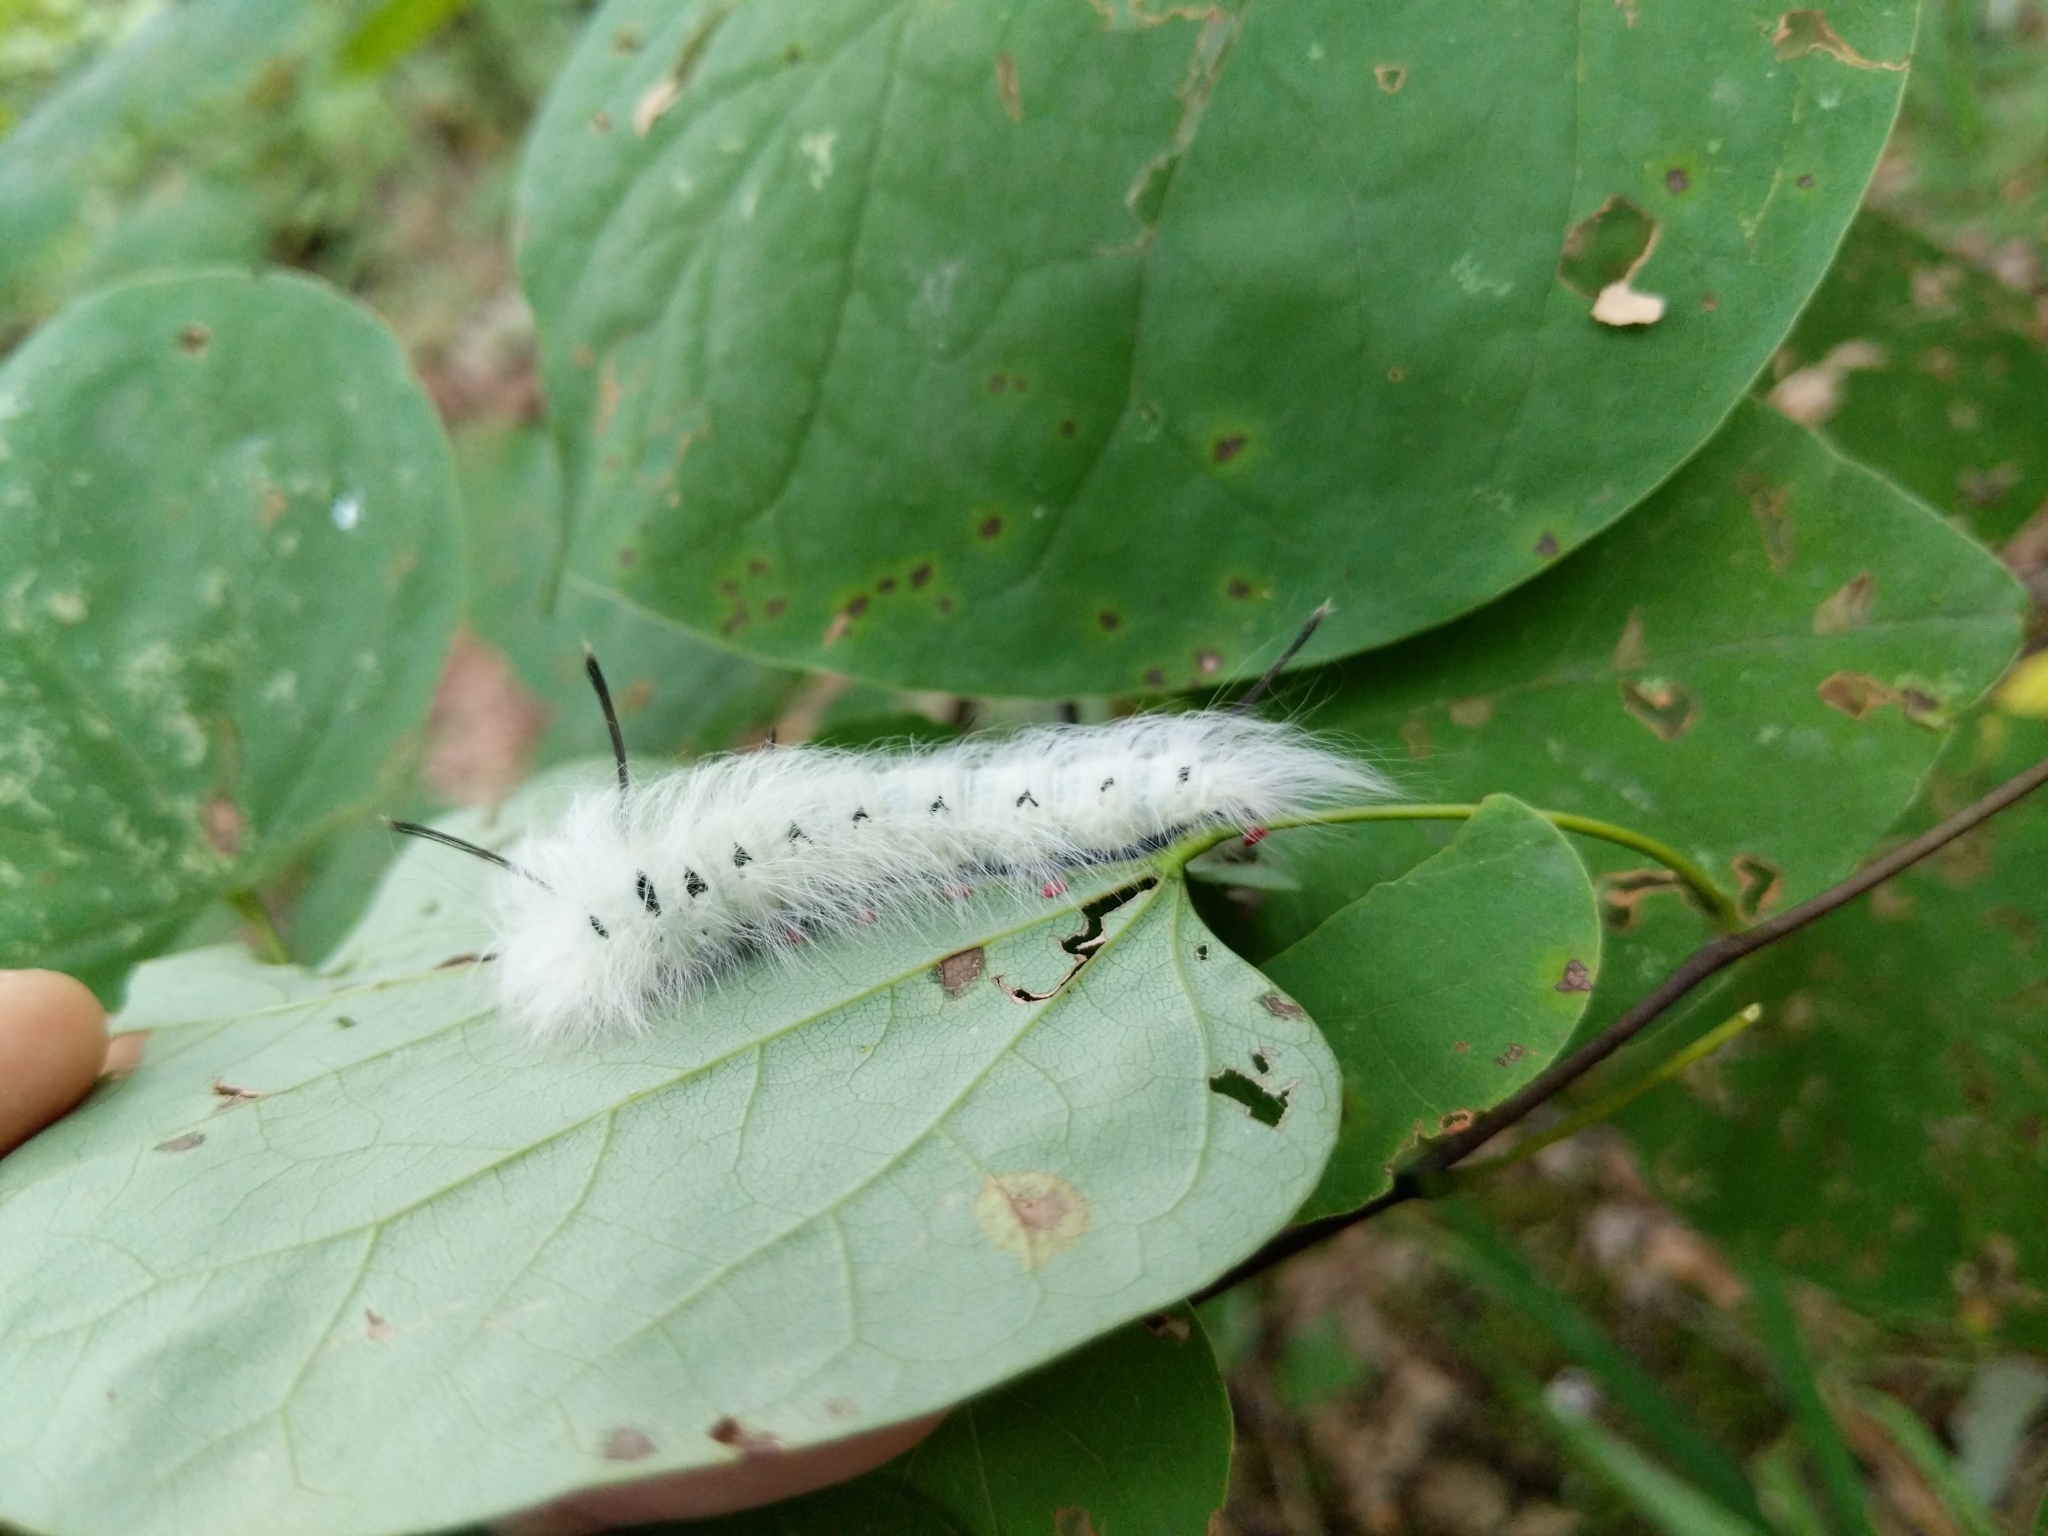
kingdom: Animalia
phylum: Arthropoda
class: Insecta
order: Lepidoptera
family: Apatelodidae
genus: Hygrochroa
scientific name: Hygrochroa Apatelodes torrefacta
